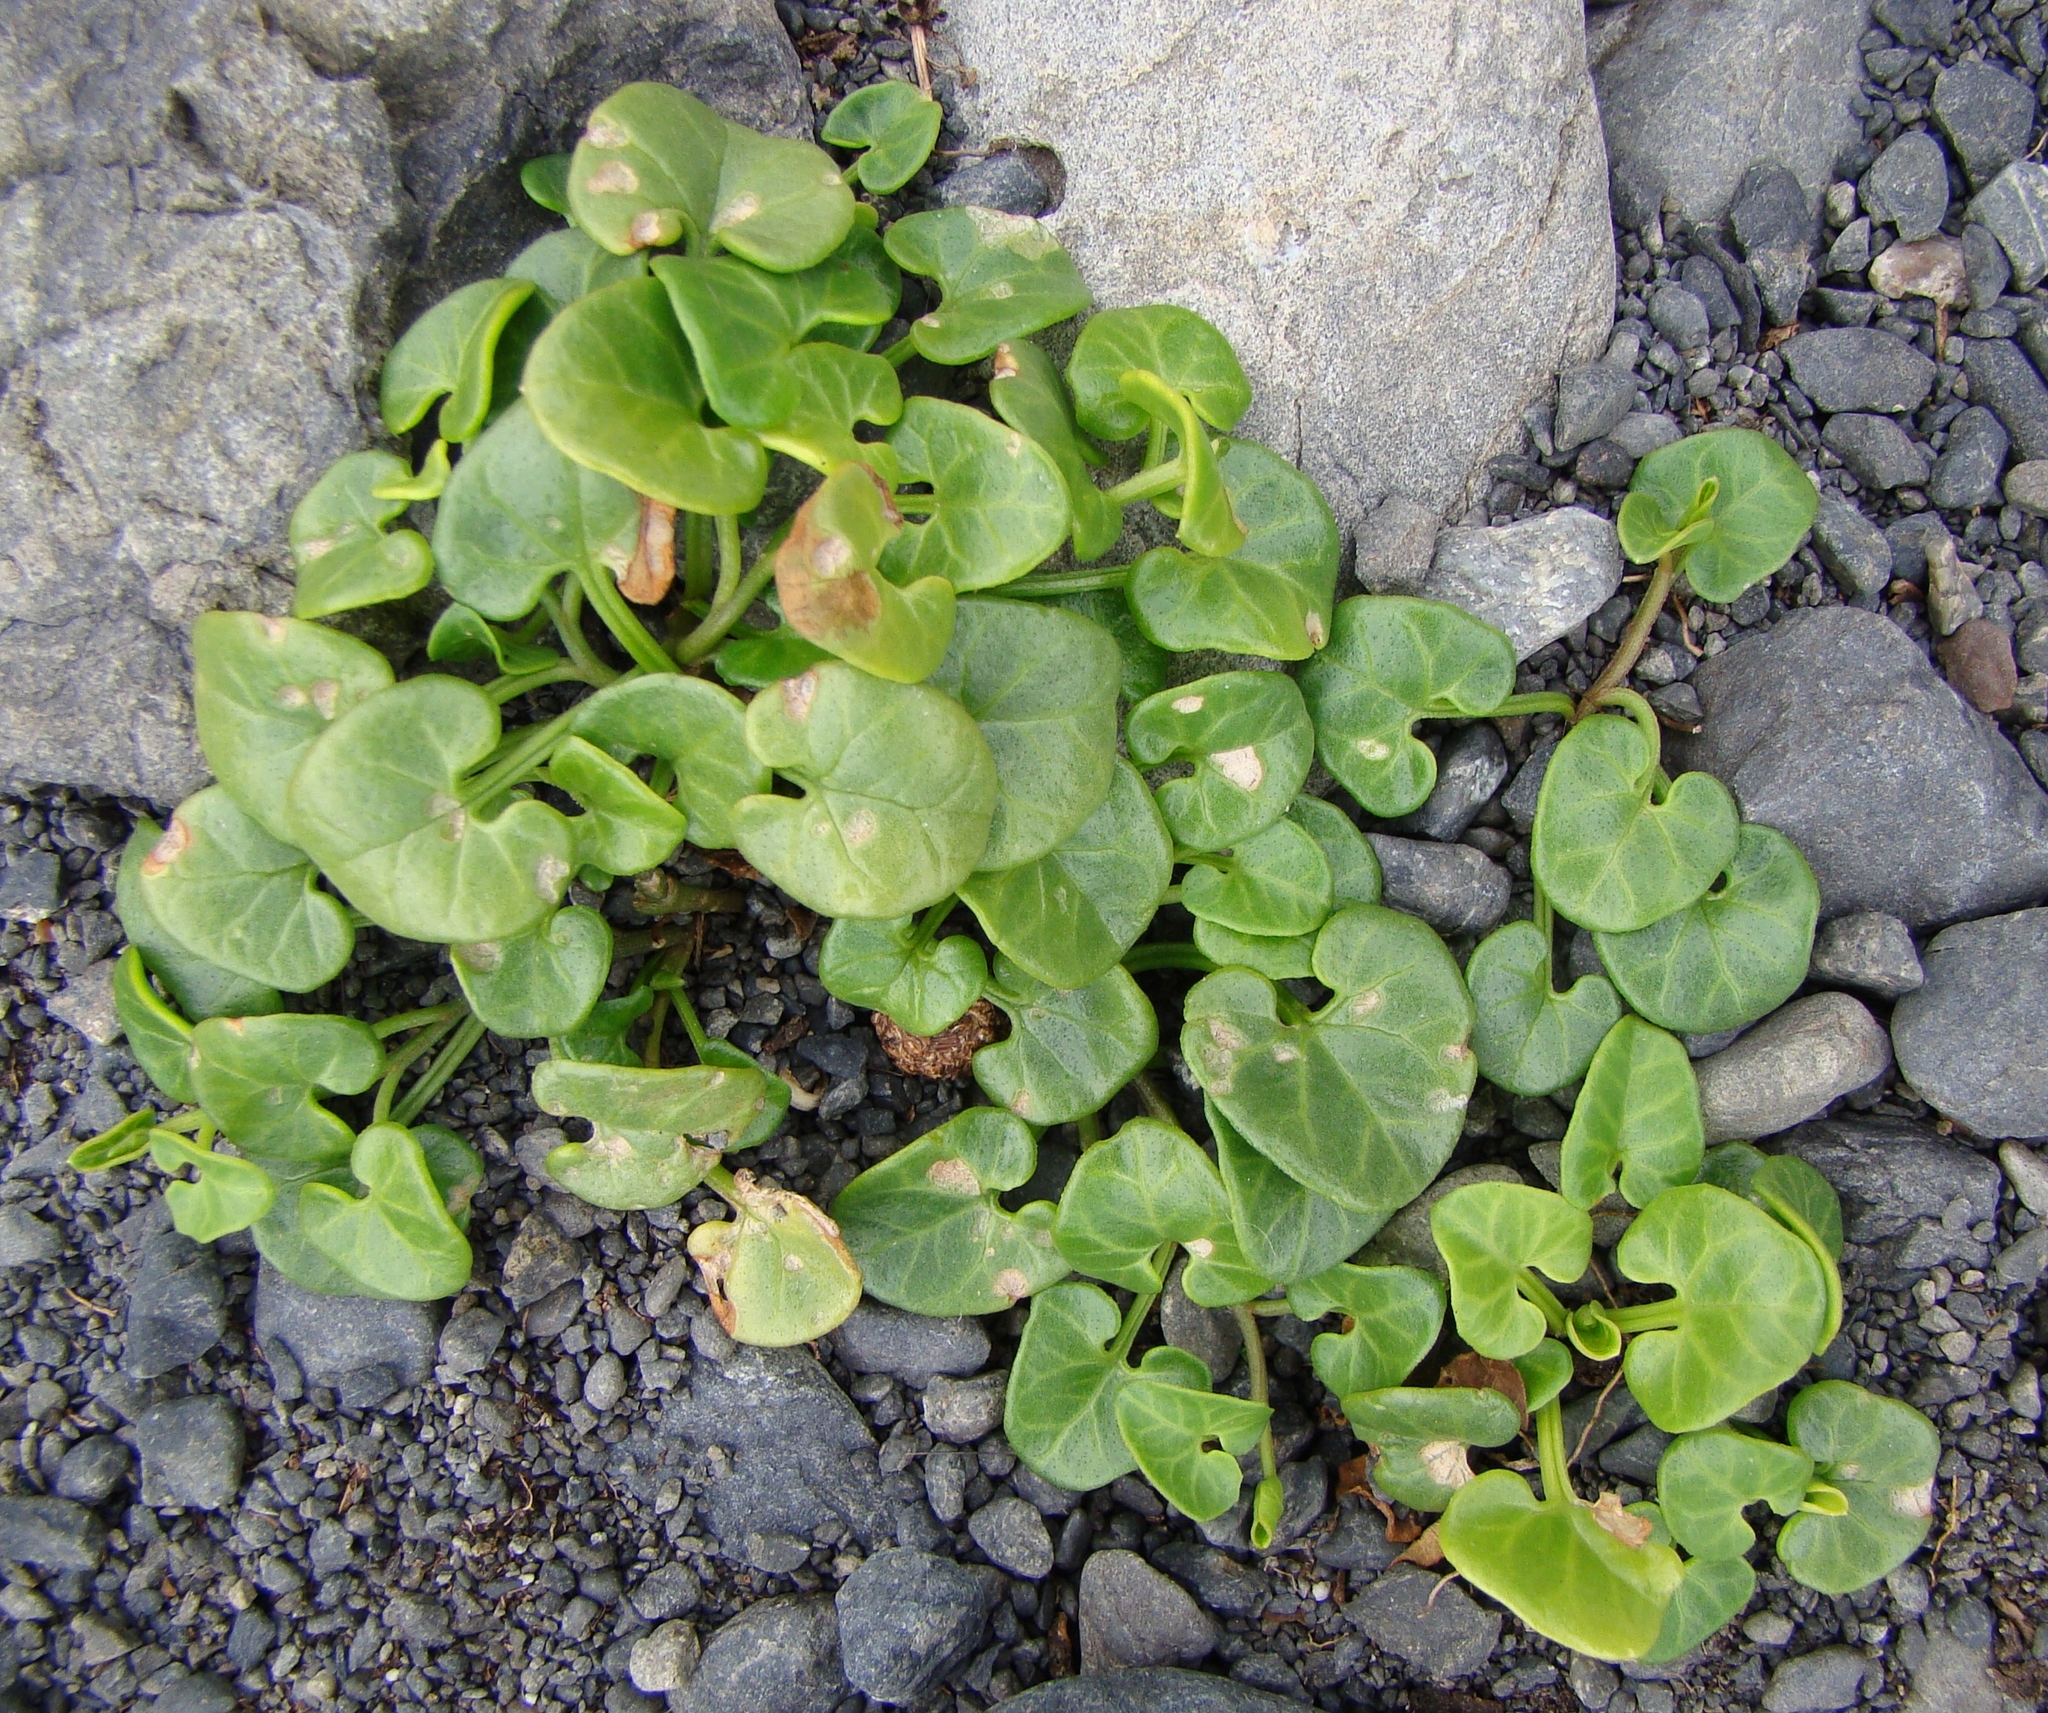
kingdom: Plantae
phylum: Tracheophyta
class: Magnoliopsida
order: Solanales
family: Convolvulaceae
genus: Calystegia
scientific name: Calystegia soldanella
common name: Sea bindweed
